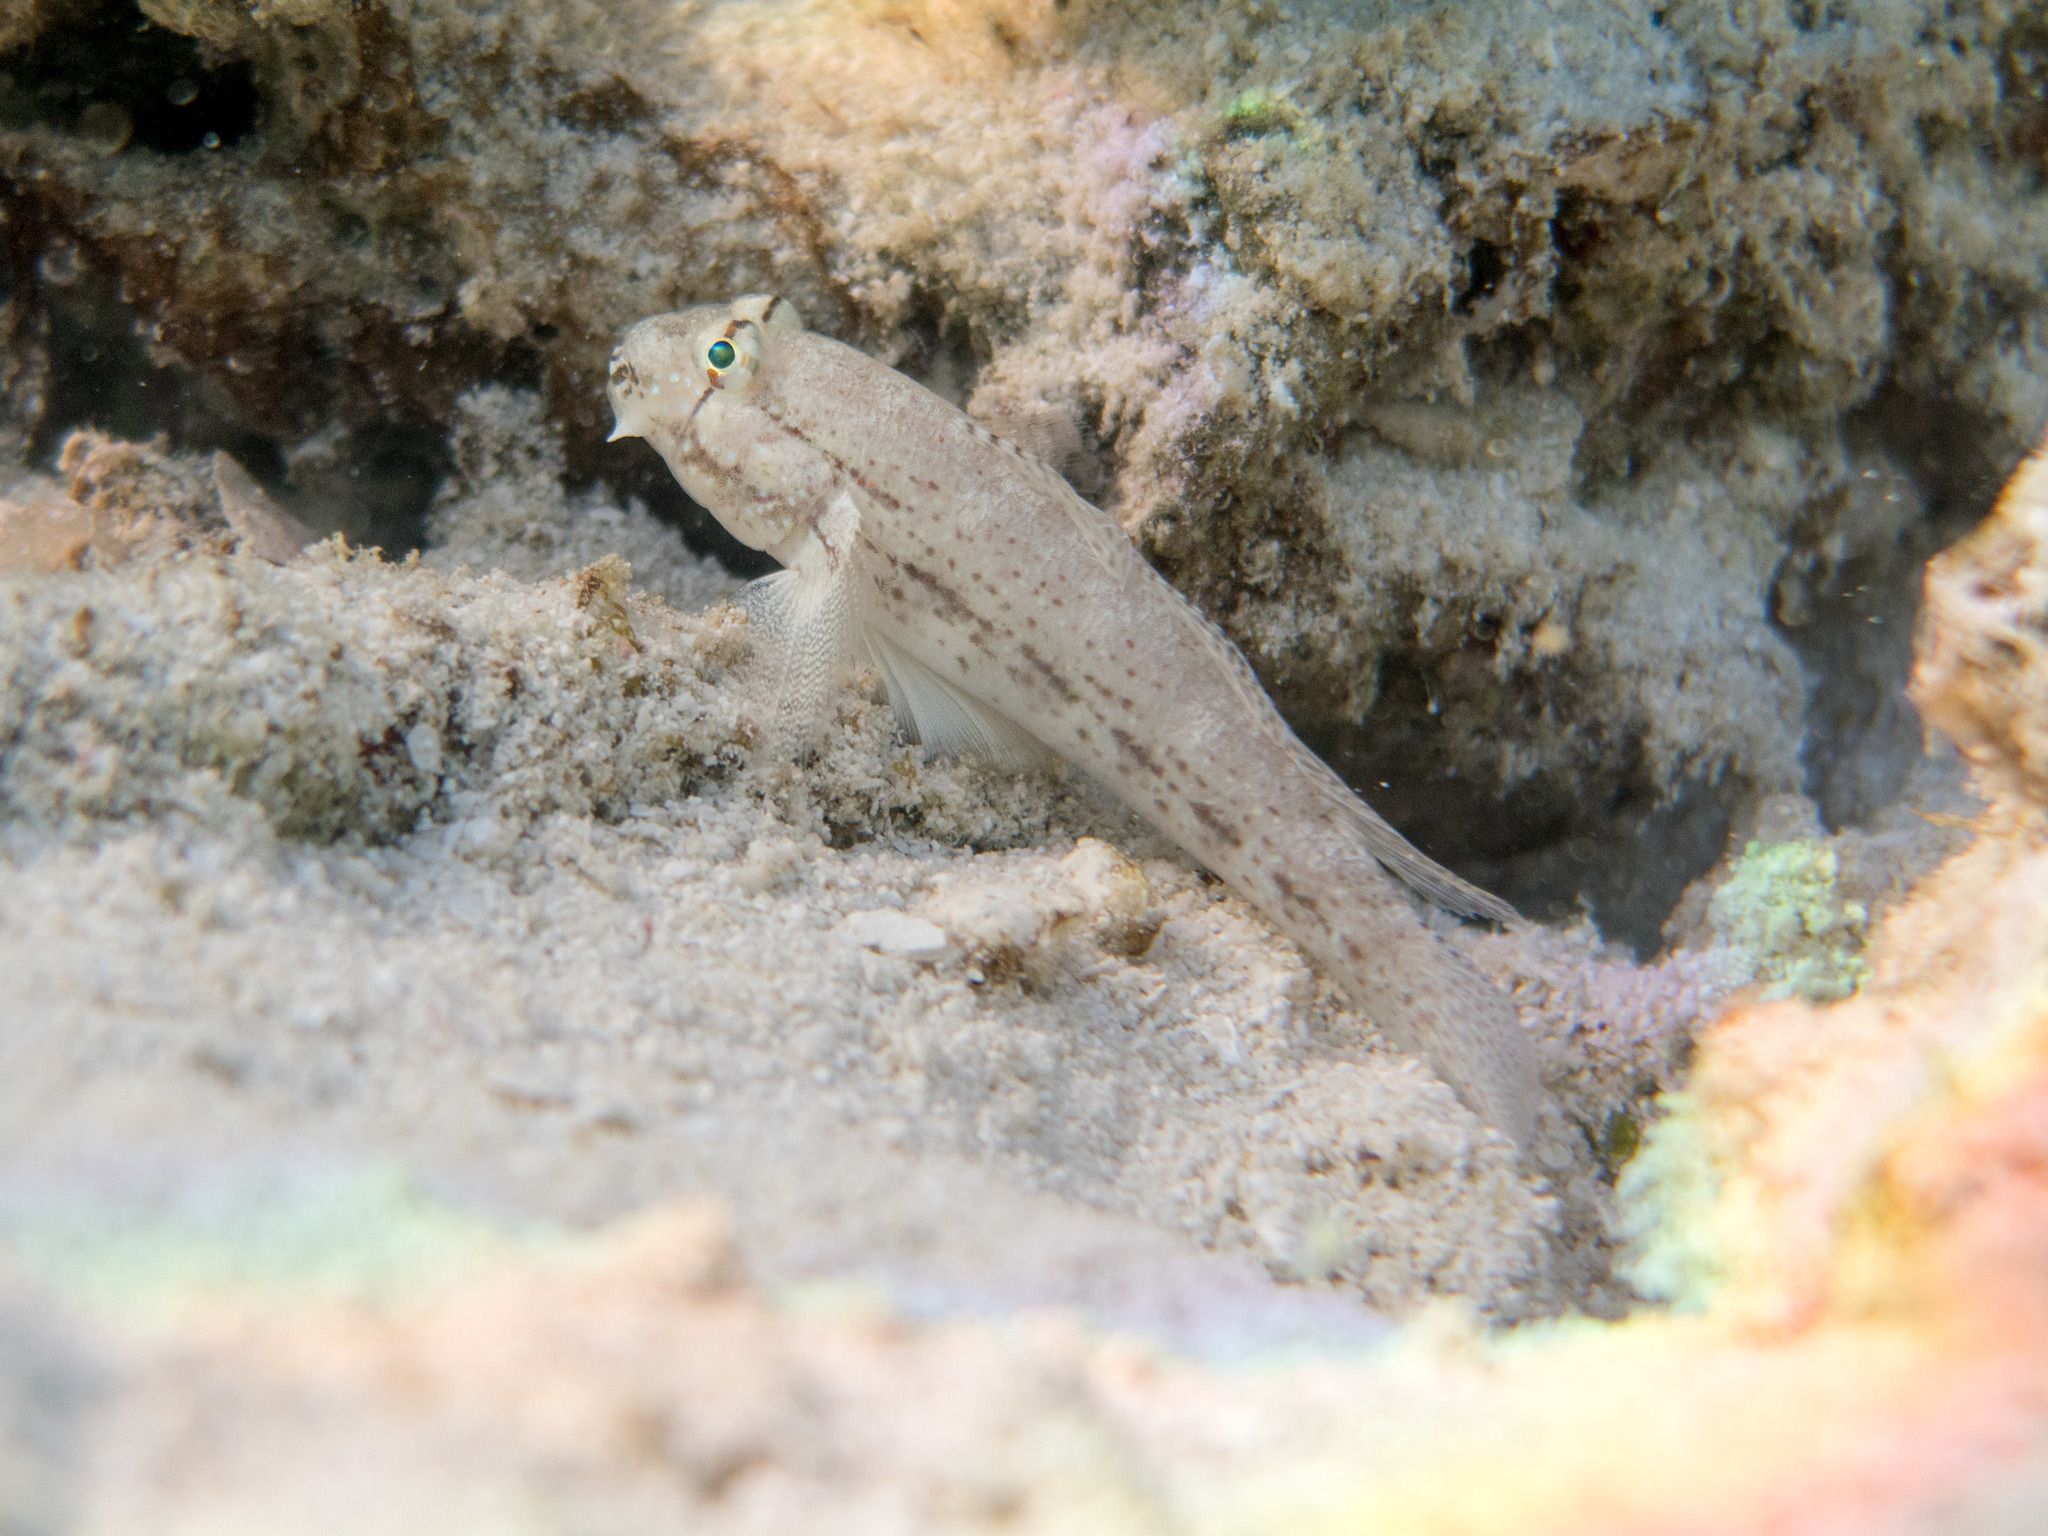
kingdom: Animalia
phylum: Chordata
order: Perciformes
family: Gobiidae
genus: Gnatholepis
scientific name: Gnatholepis anjerensis
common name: Anjer eye-bar goby
